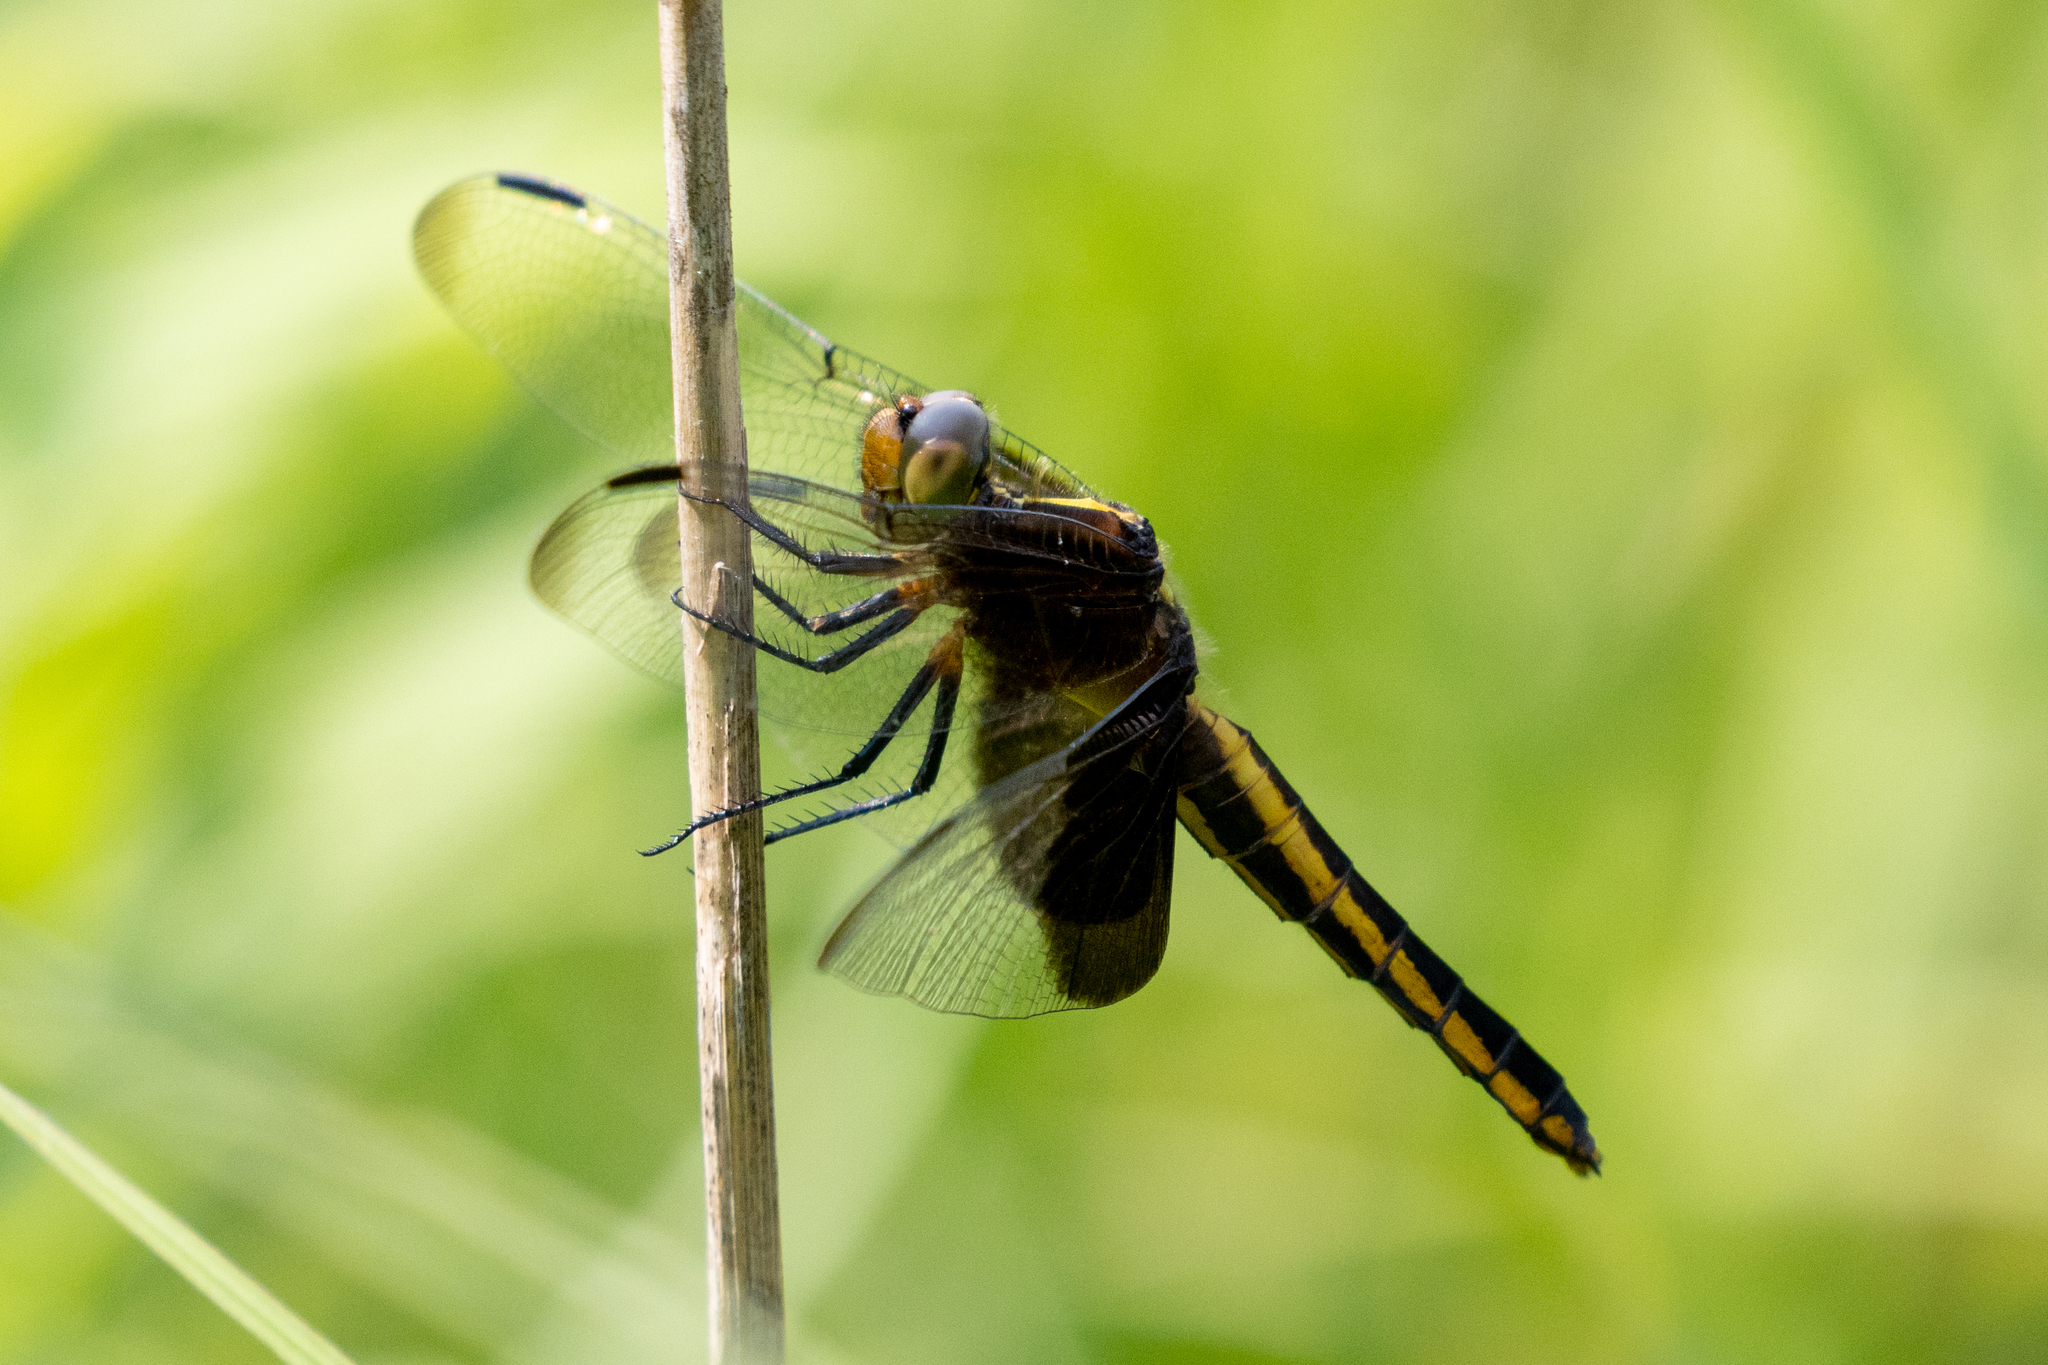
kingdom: Animalia
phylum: Arthropoda
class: Insecta
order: Odonata
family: Libellulidae
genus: Libellula
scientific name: Libellula luctuosa
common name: Widow skimmer
